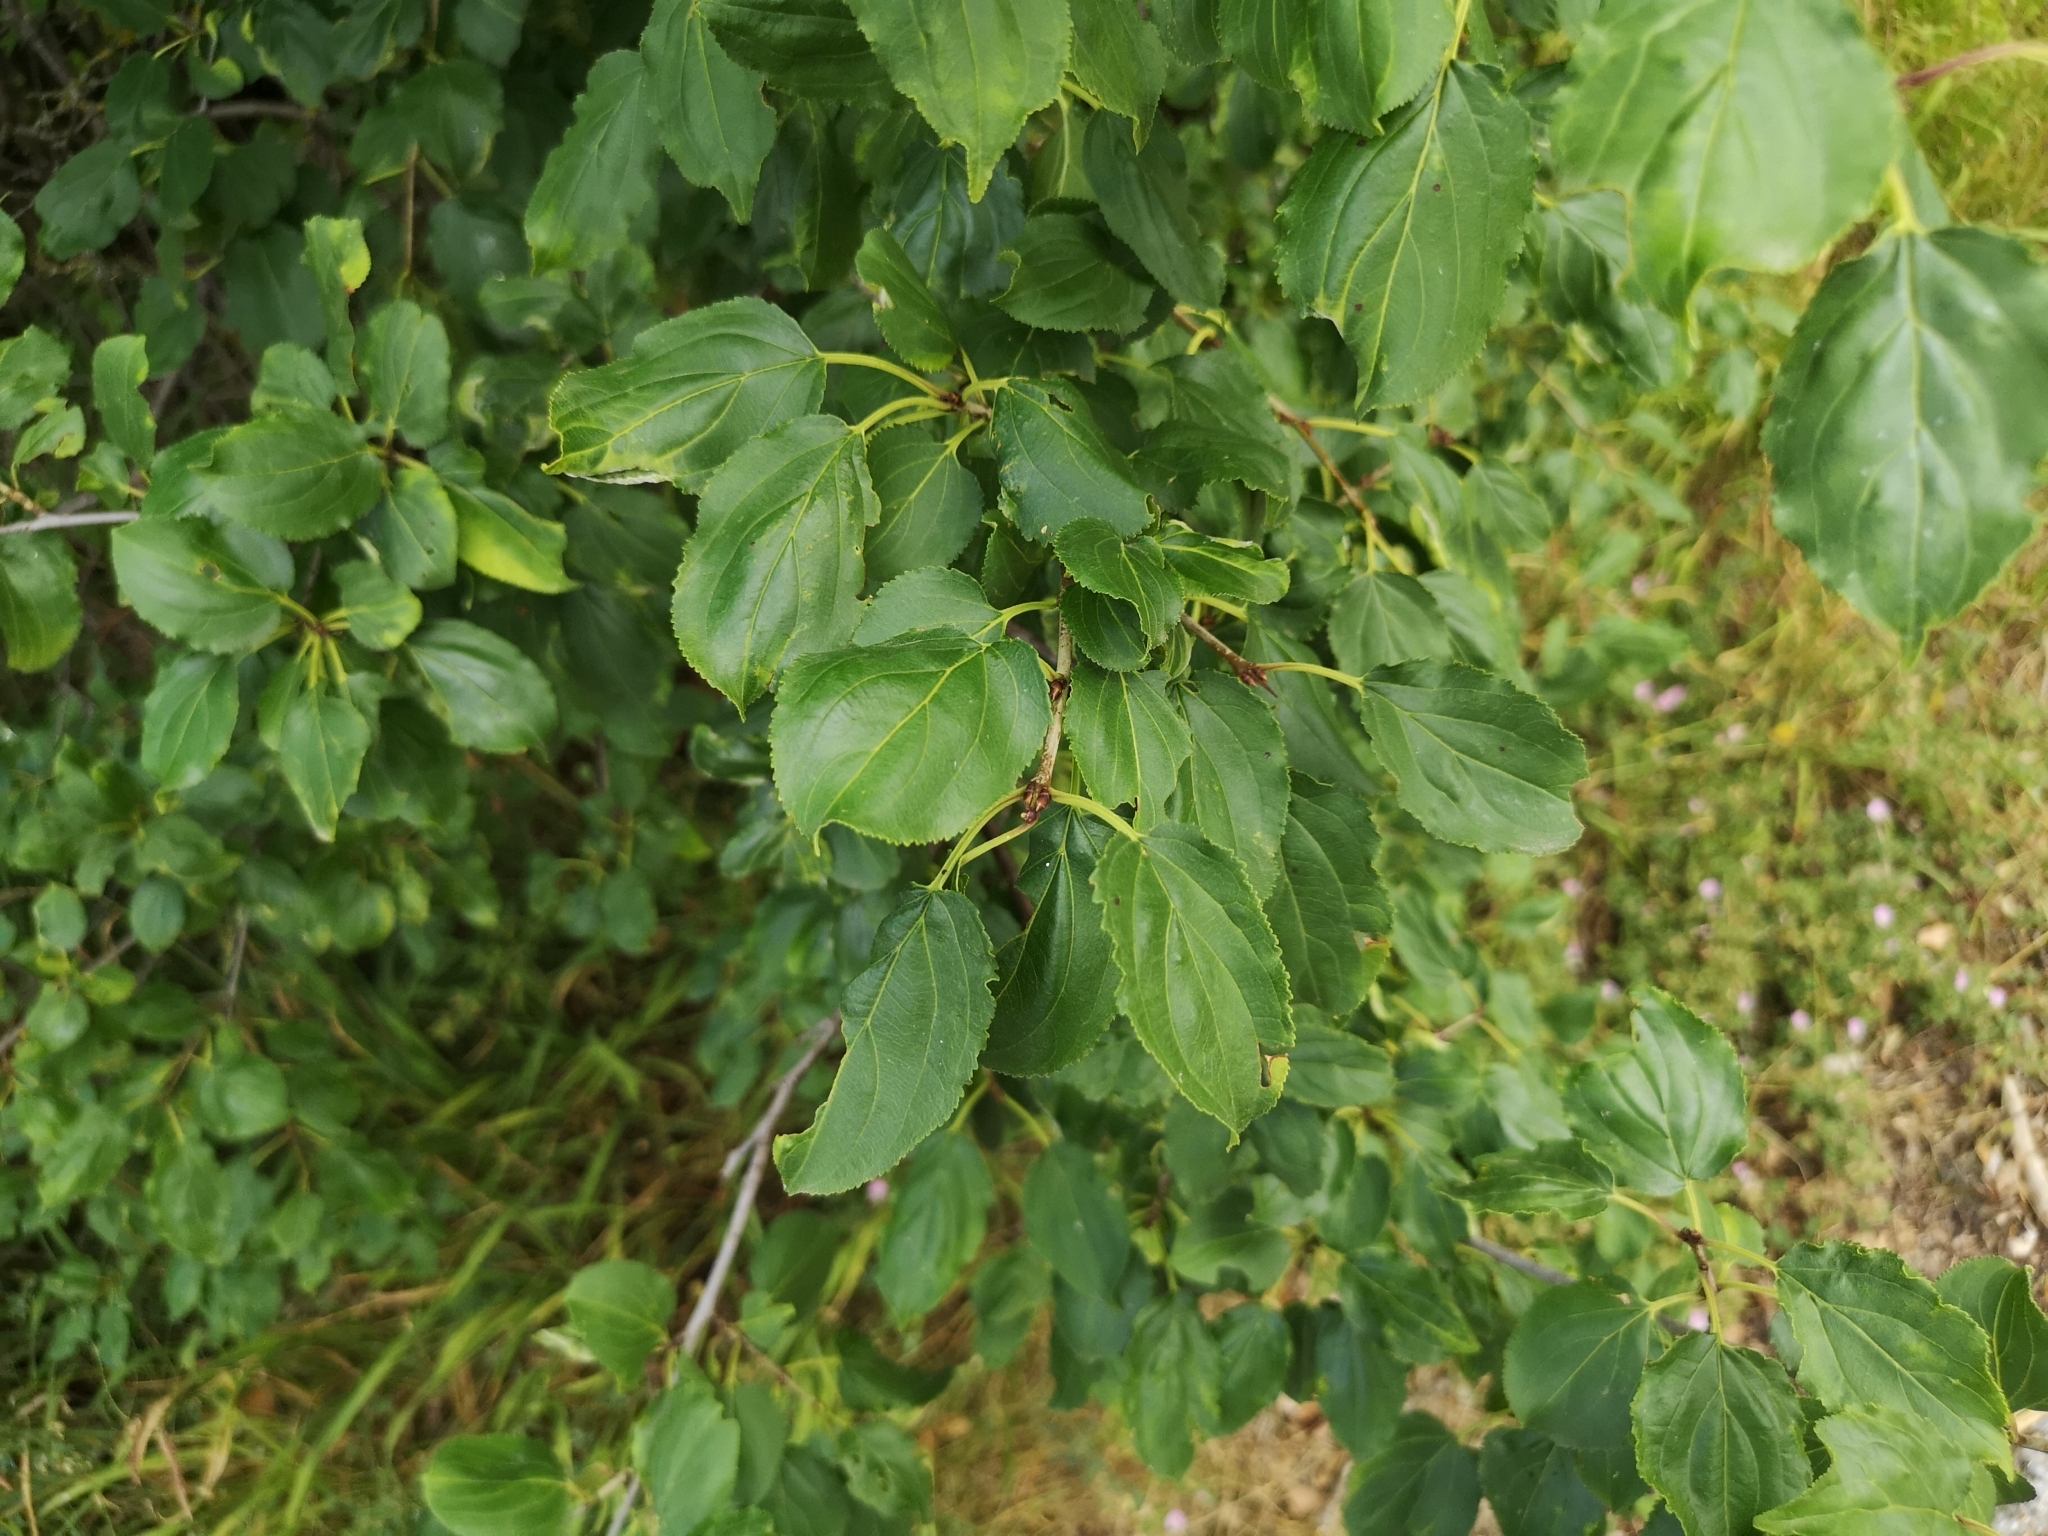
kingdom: Plantae
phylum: Tracheophyta
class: Magnoliopsida
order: Rosales
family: Rhamnaceae
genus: Rhamnus
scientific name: Rhamnus cathartica
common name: Common buckthorn
